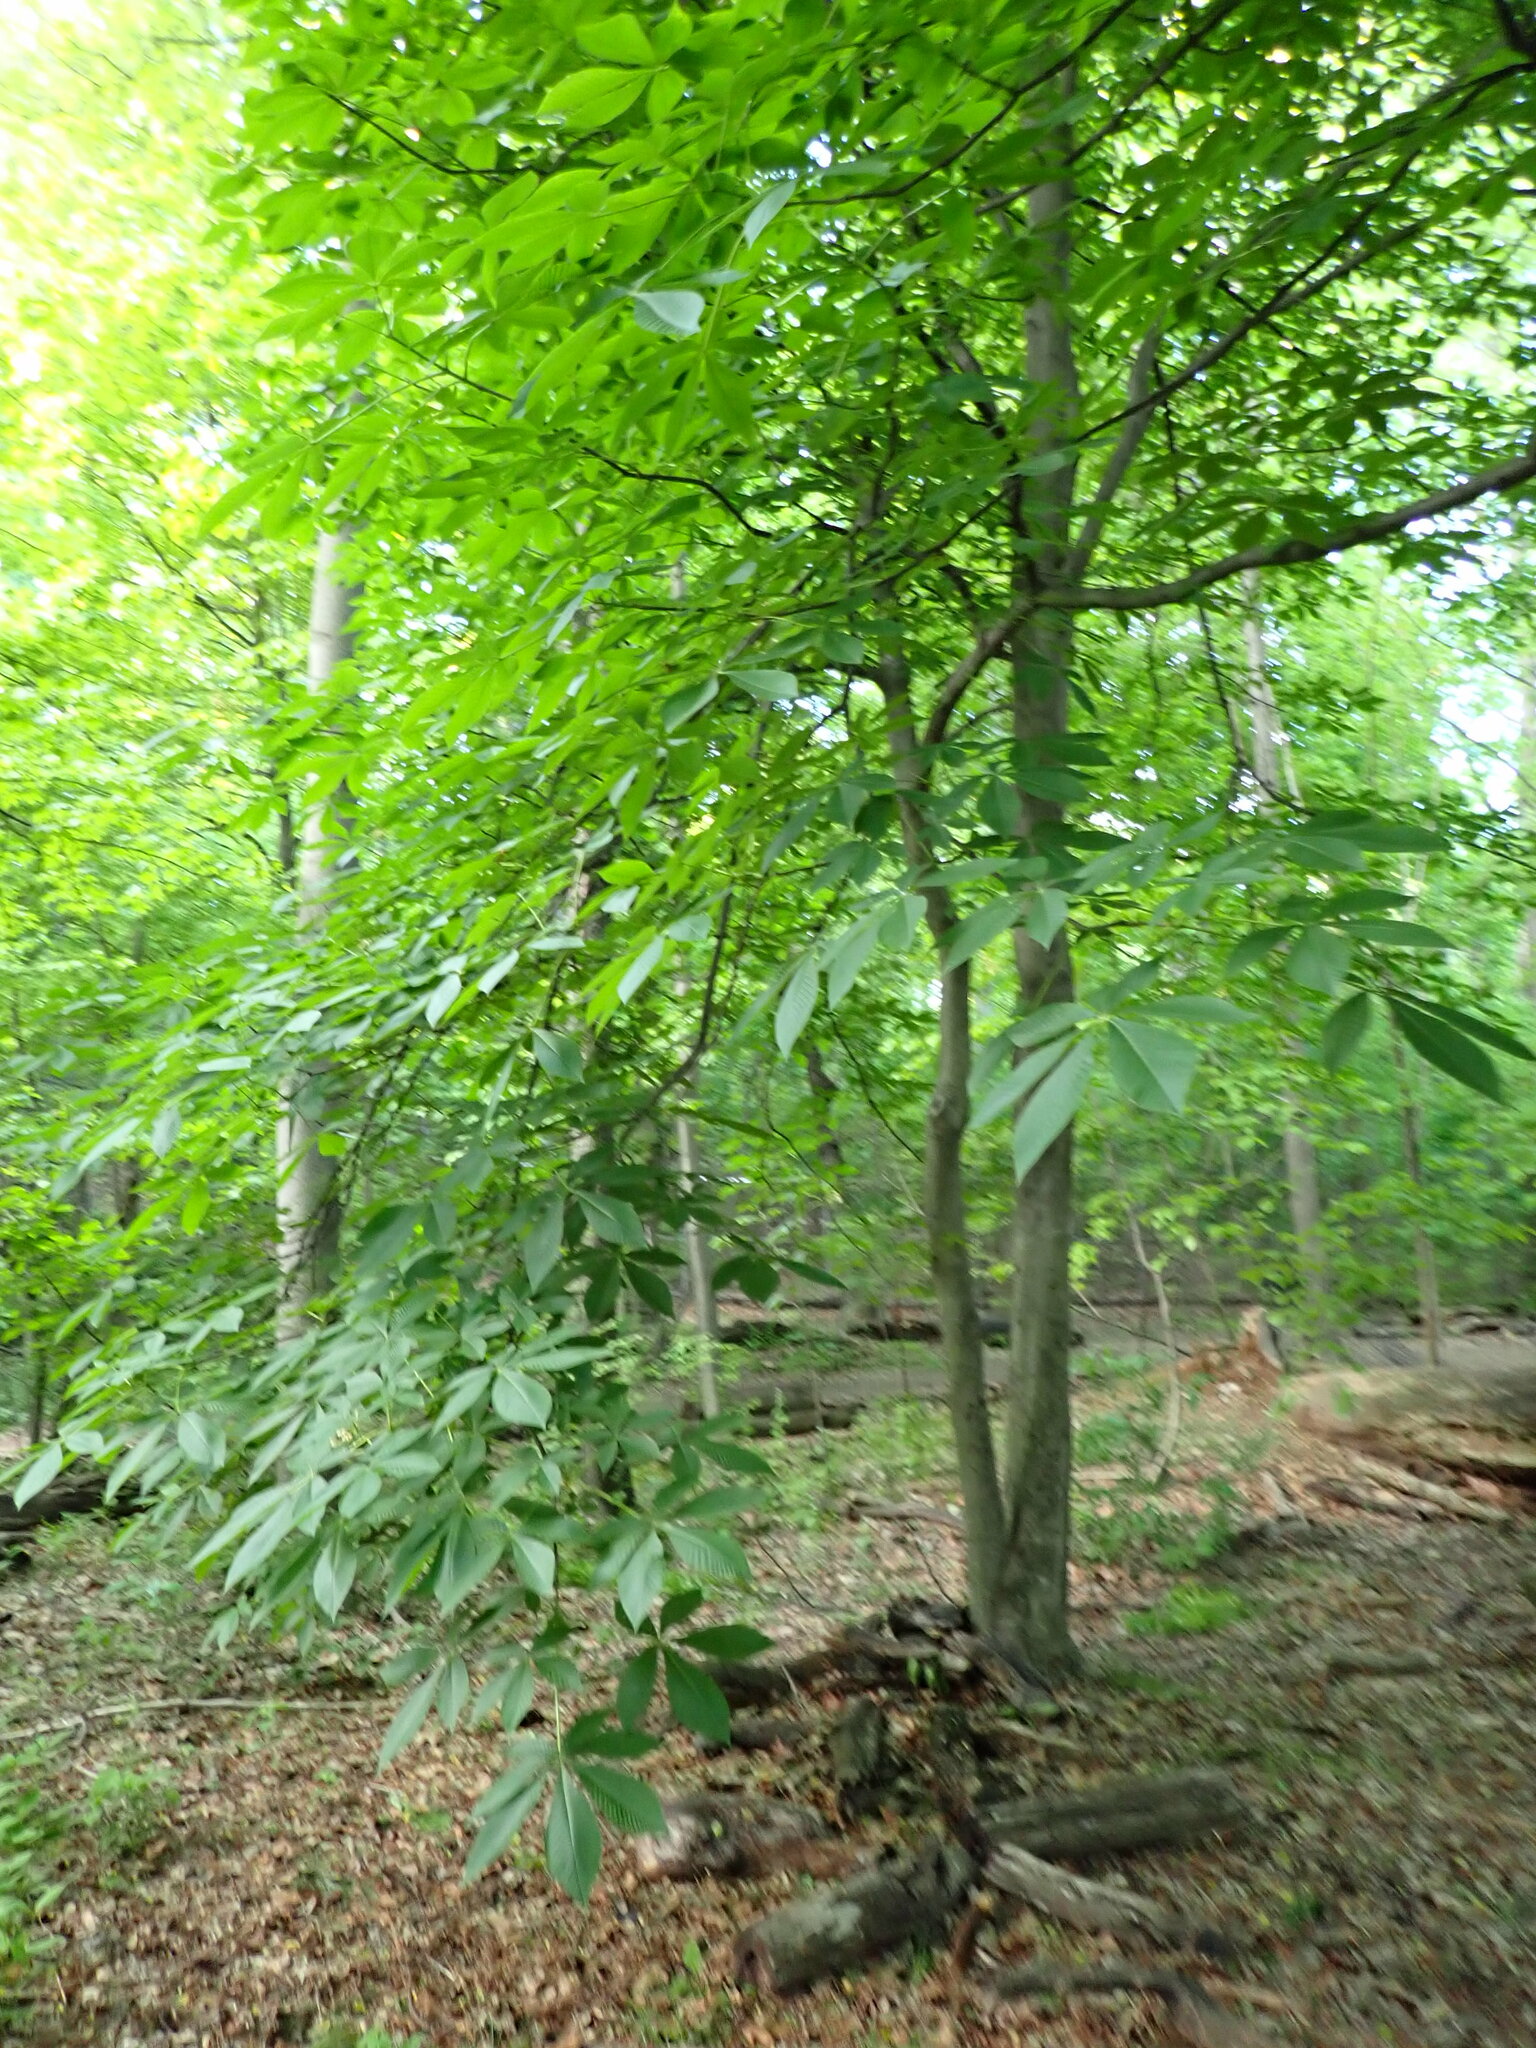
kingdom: Plantae
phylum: Tracheophyta
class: Magnoliopsida
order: Sapindales
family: Sapindaceae
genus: Aesculus
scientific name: Aesculus flava
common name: Yellow buckeye
